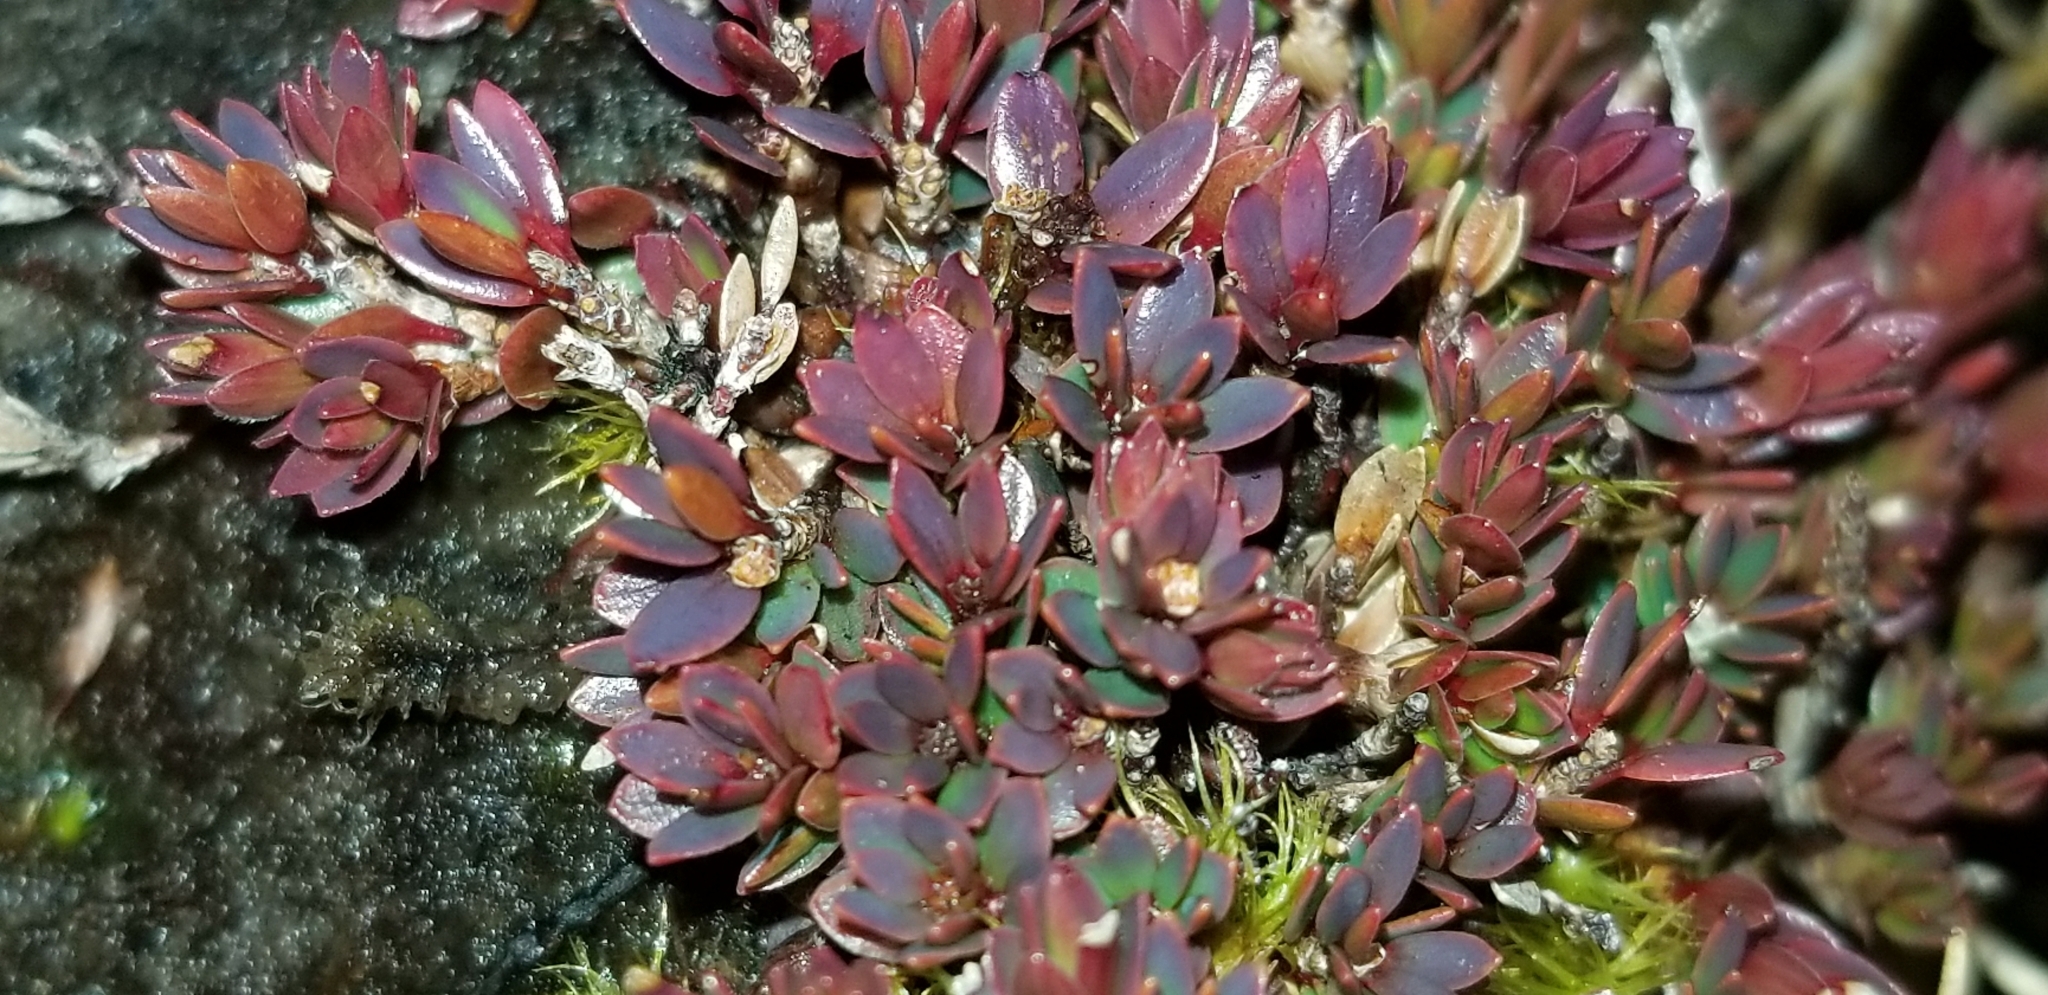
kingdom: Plantae
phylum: Tracheophyta
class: Magnoliopsida
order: Ericales
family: Ericaceae
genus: Pentachondra
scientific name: Pentachondra pumila
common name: Carpet-heath
